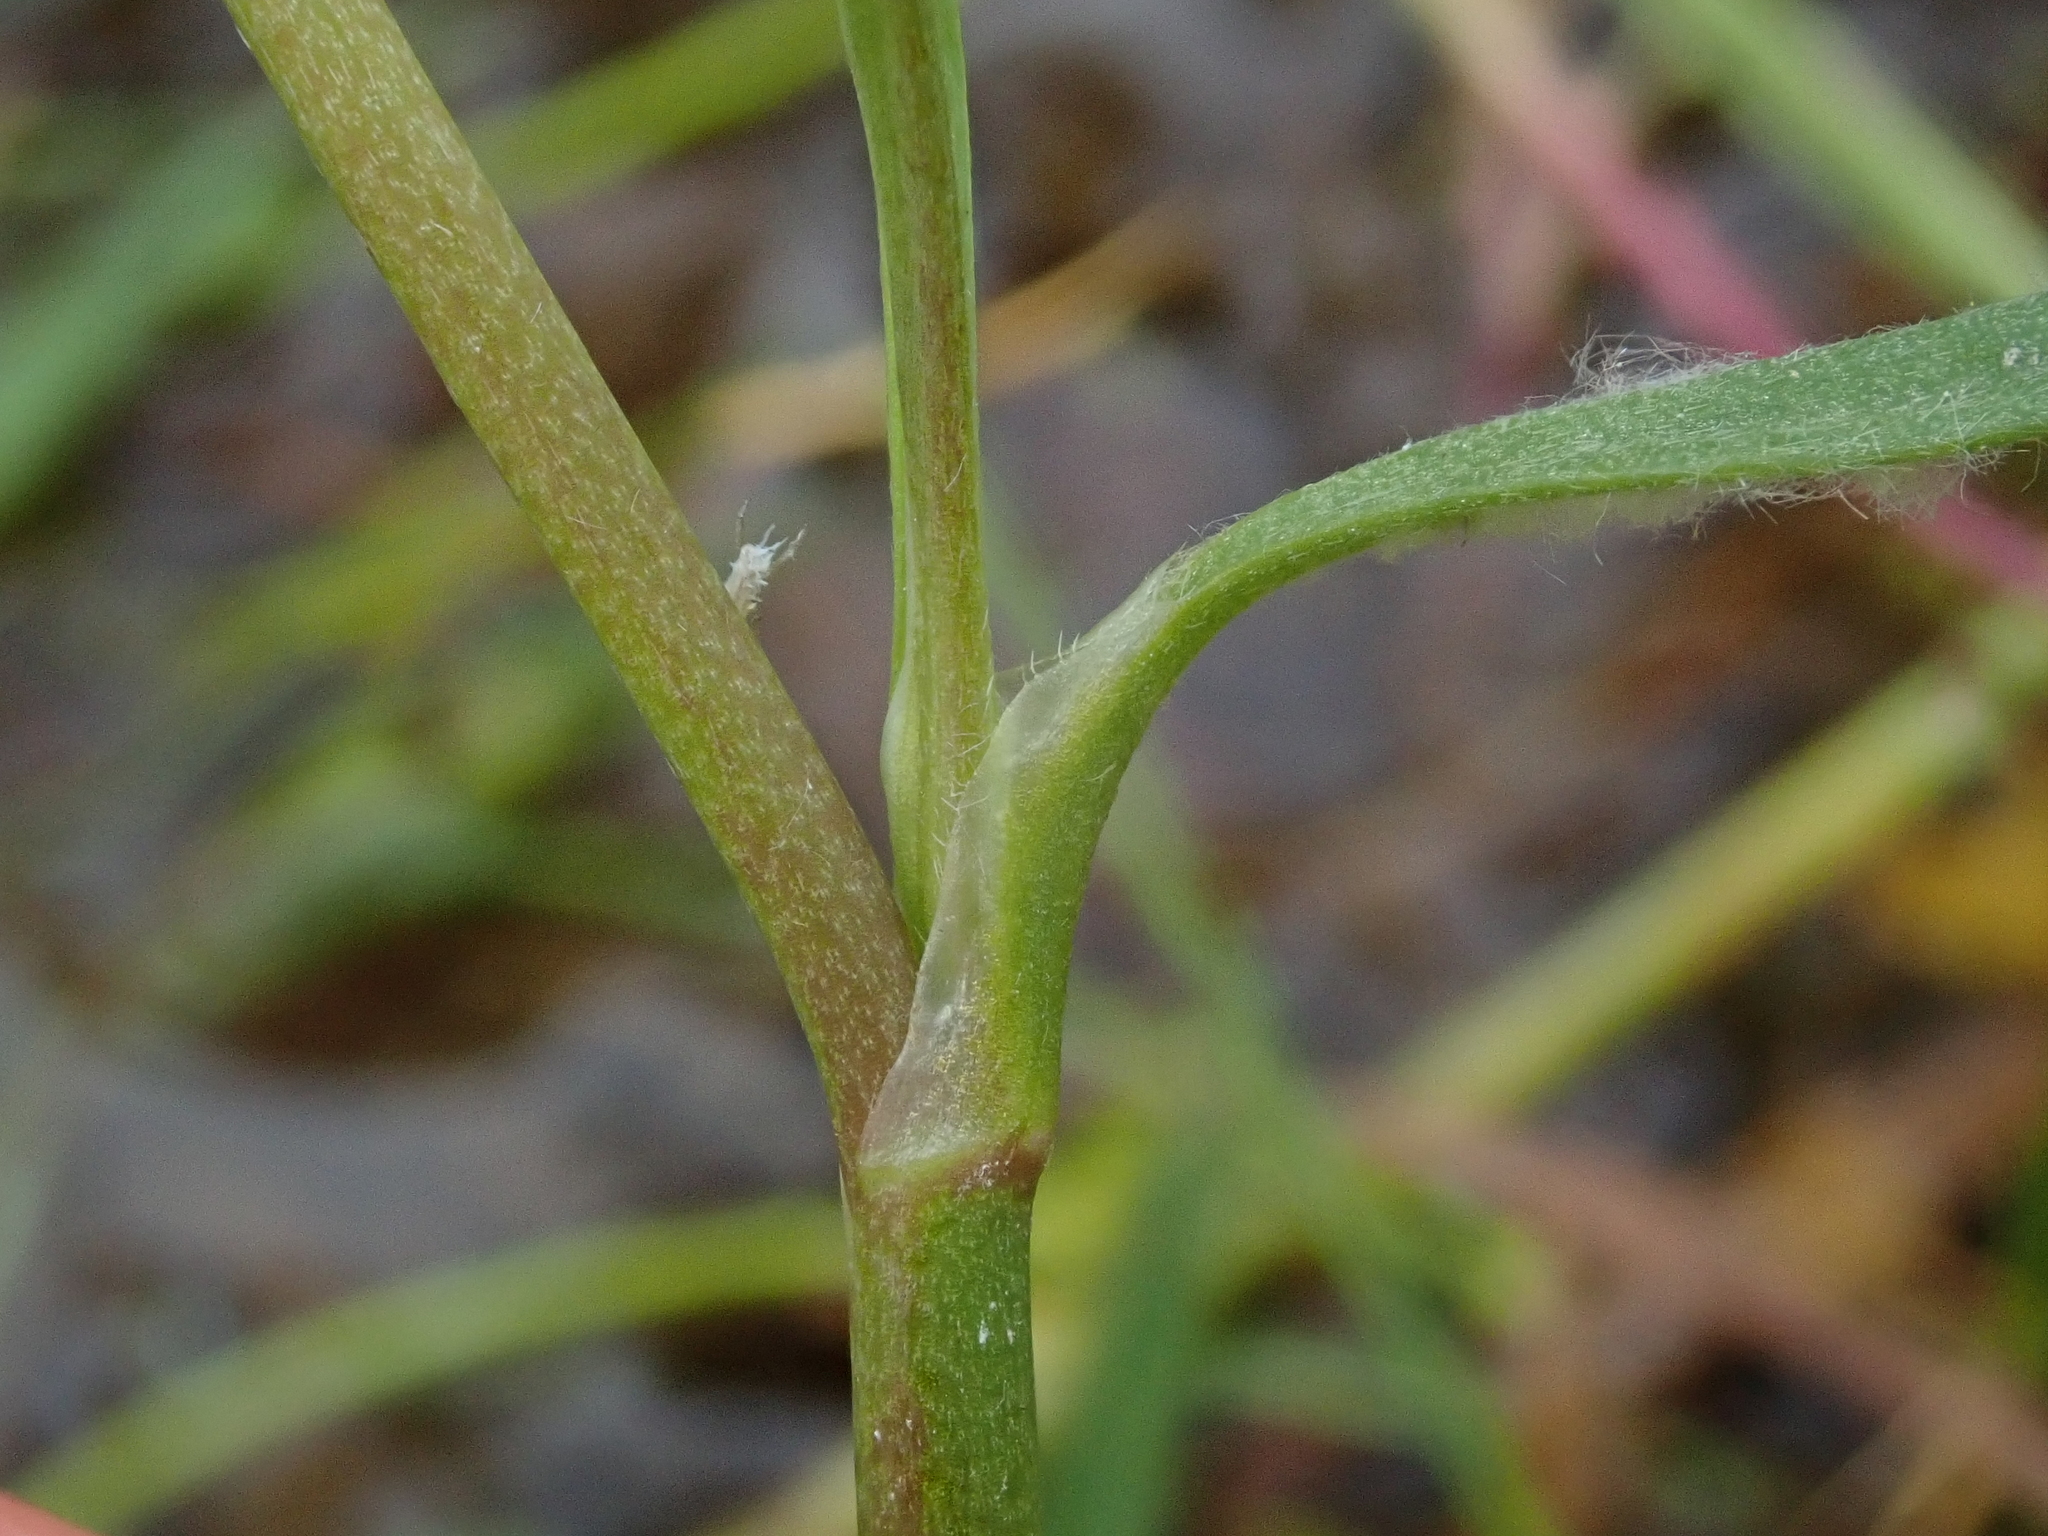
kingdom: Plantae
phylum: Tracheophyta
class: Magnoliopsida
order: Ranunculales
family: Ranunculaceae
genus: Ranunculus
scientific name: Ranunculus flammula
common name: Lesser spearwort
